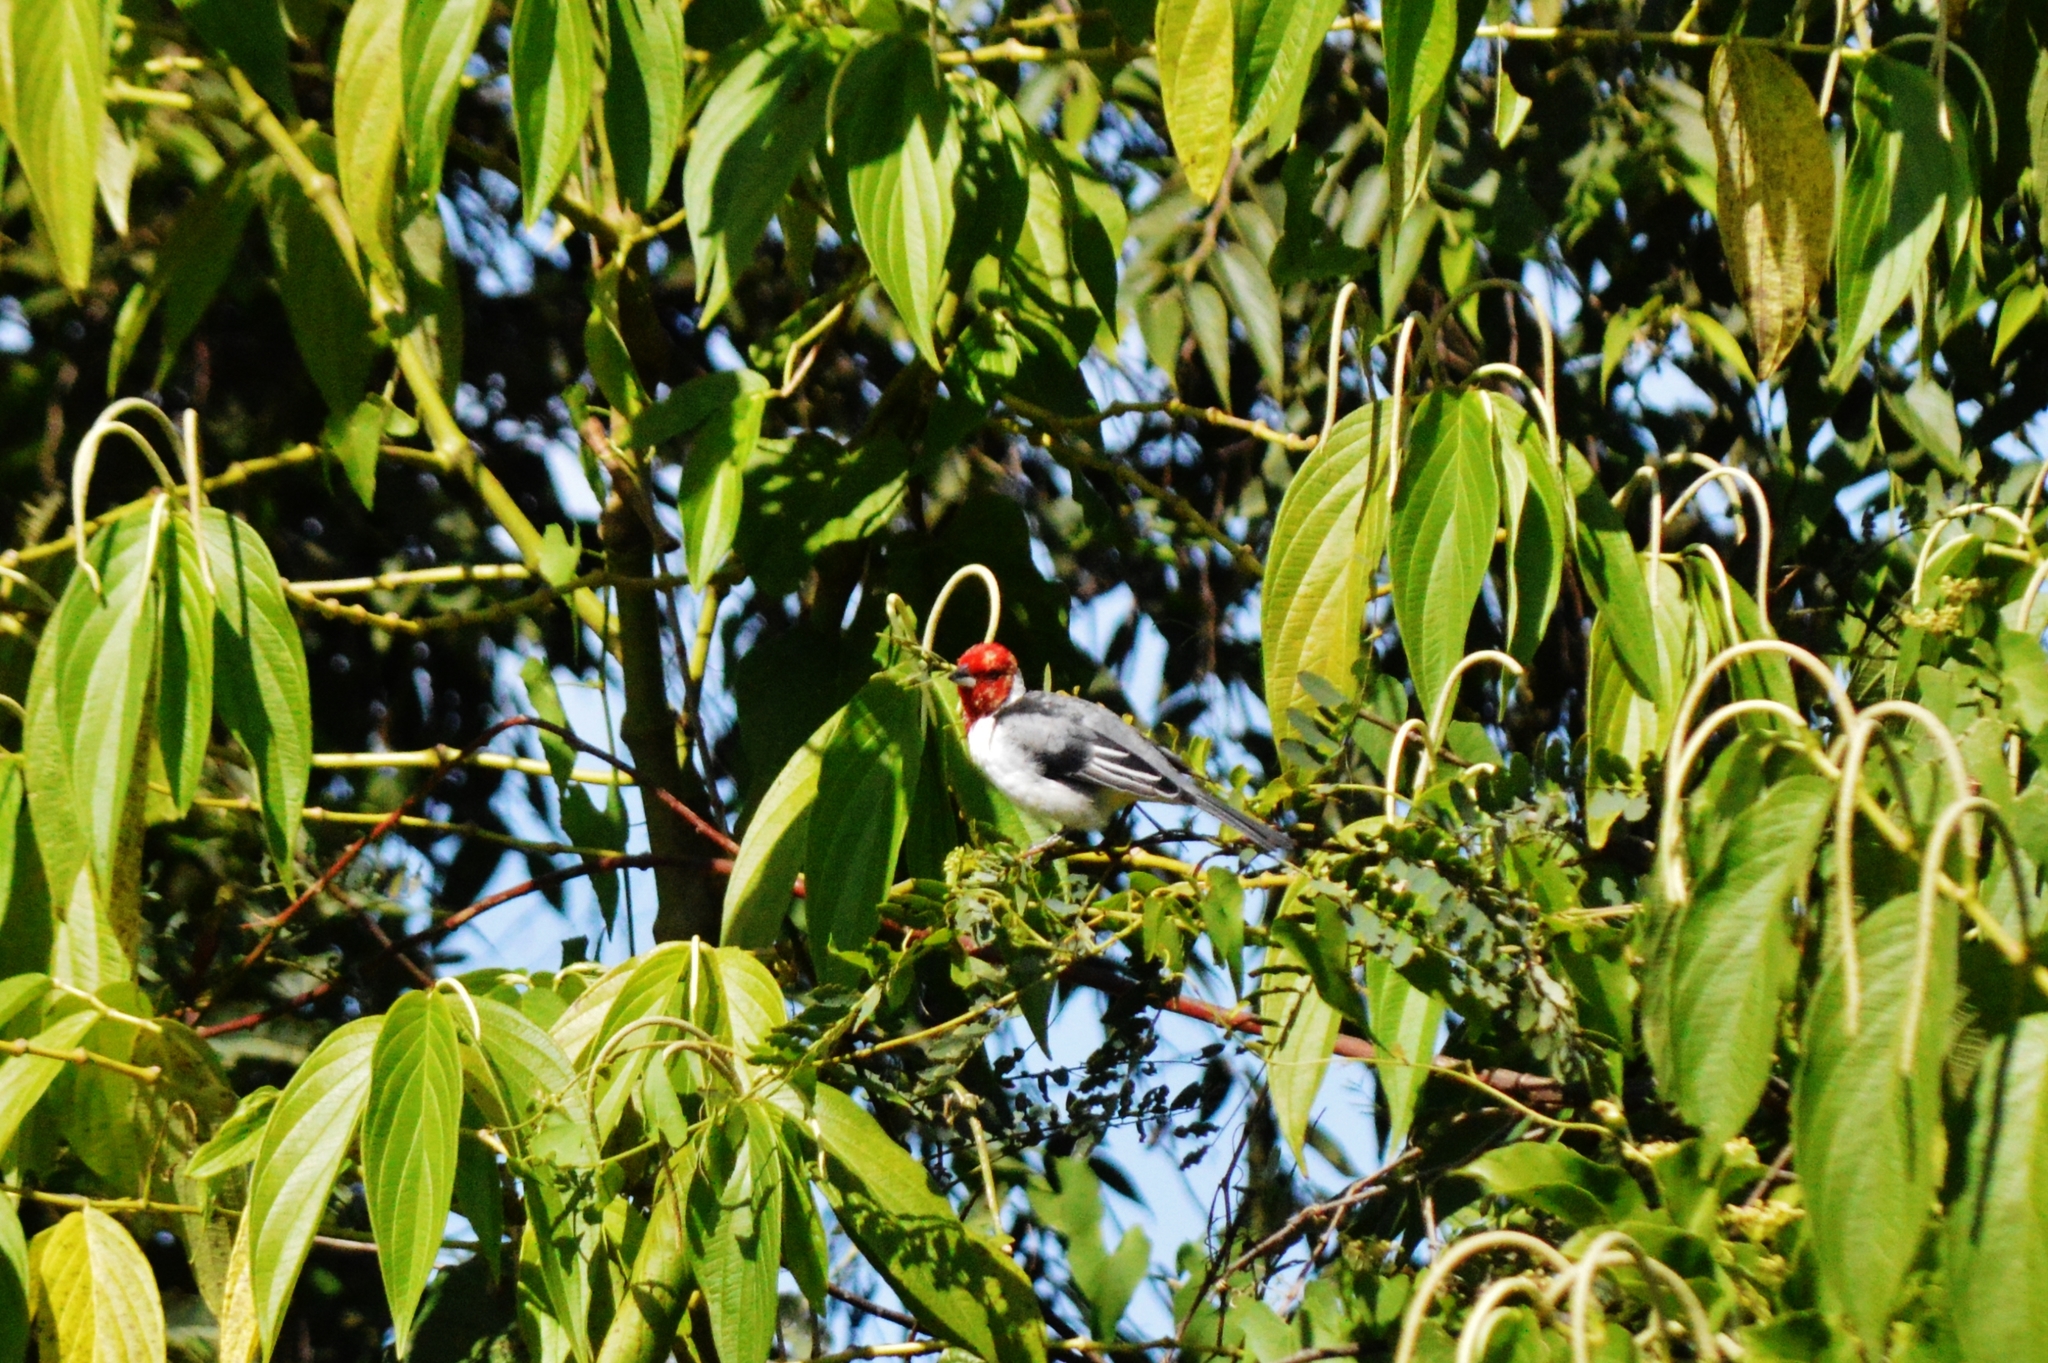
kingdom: Animalia
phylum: Chordata
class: Aves
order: Passeriformes
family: Thraupidae
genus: Paroaria
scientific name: Paroaria dominicana
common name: Red-cowled cardinal
